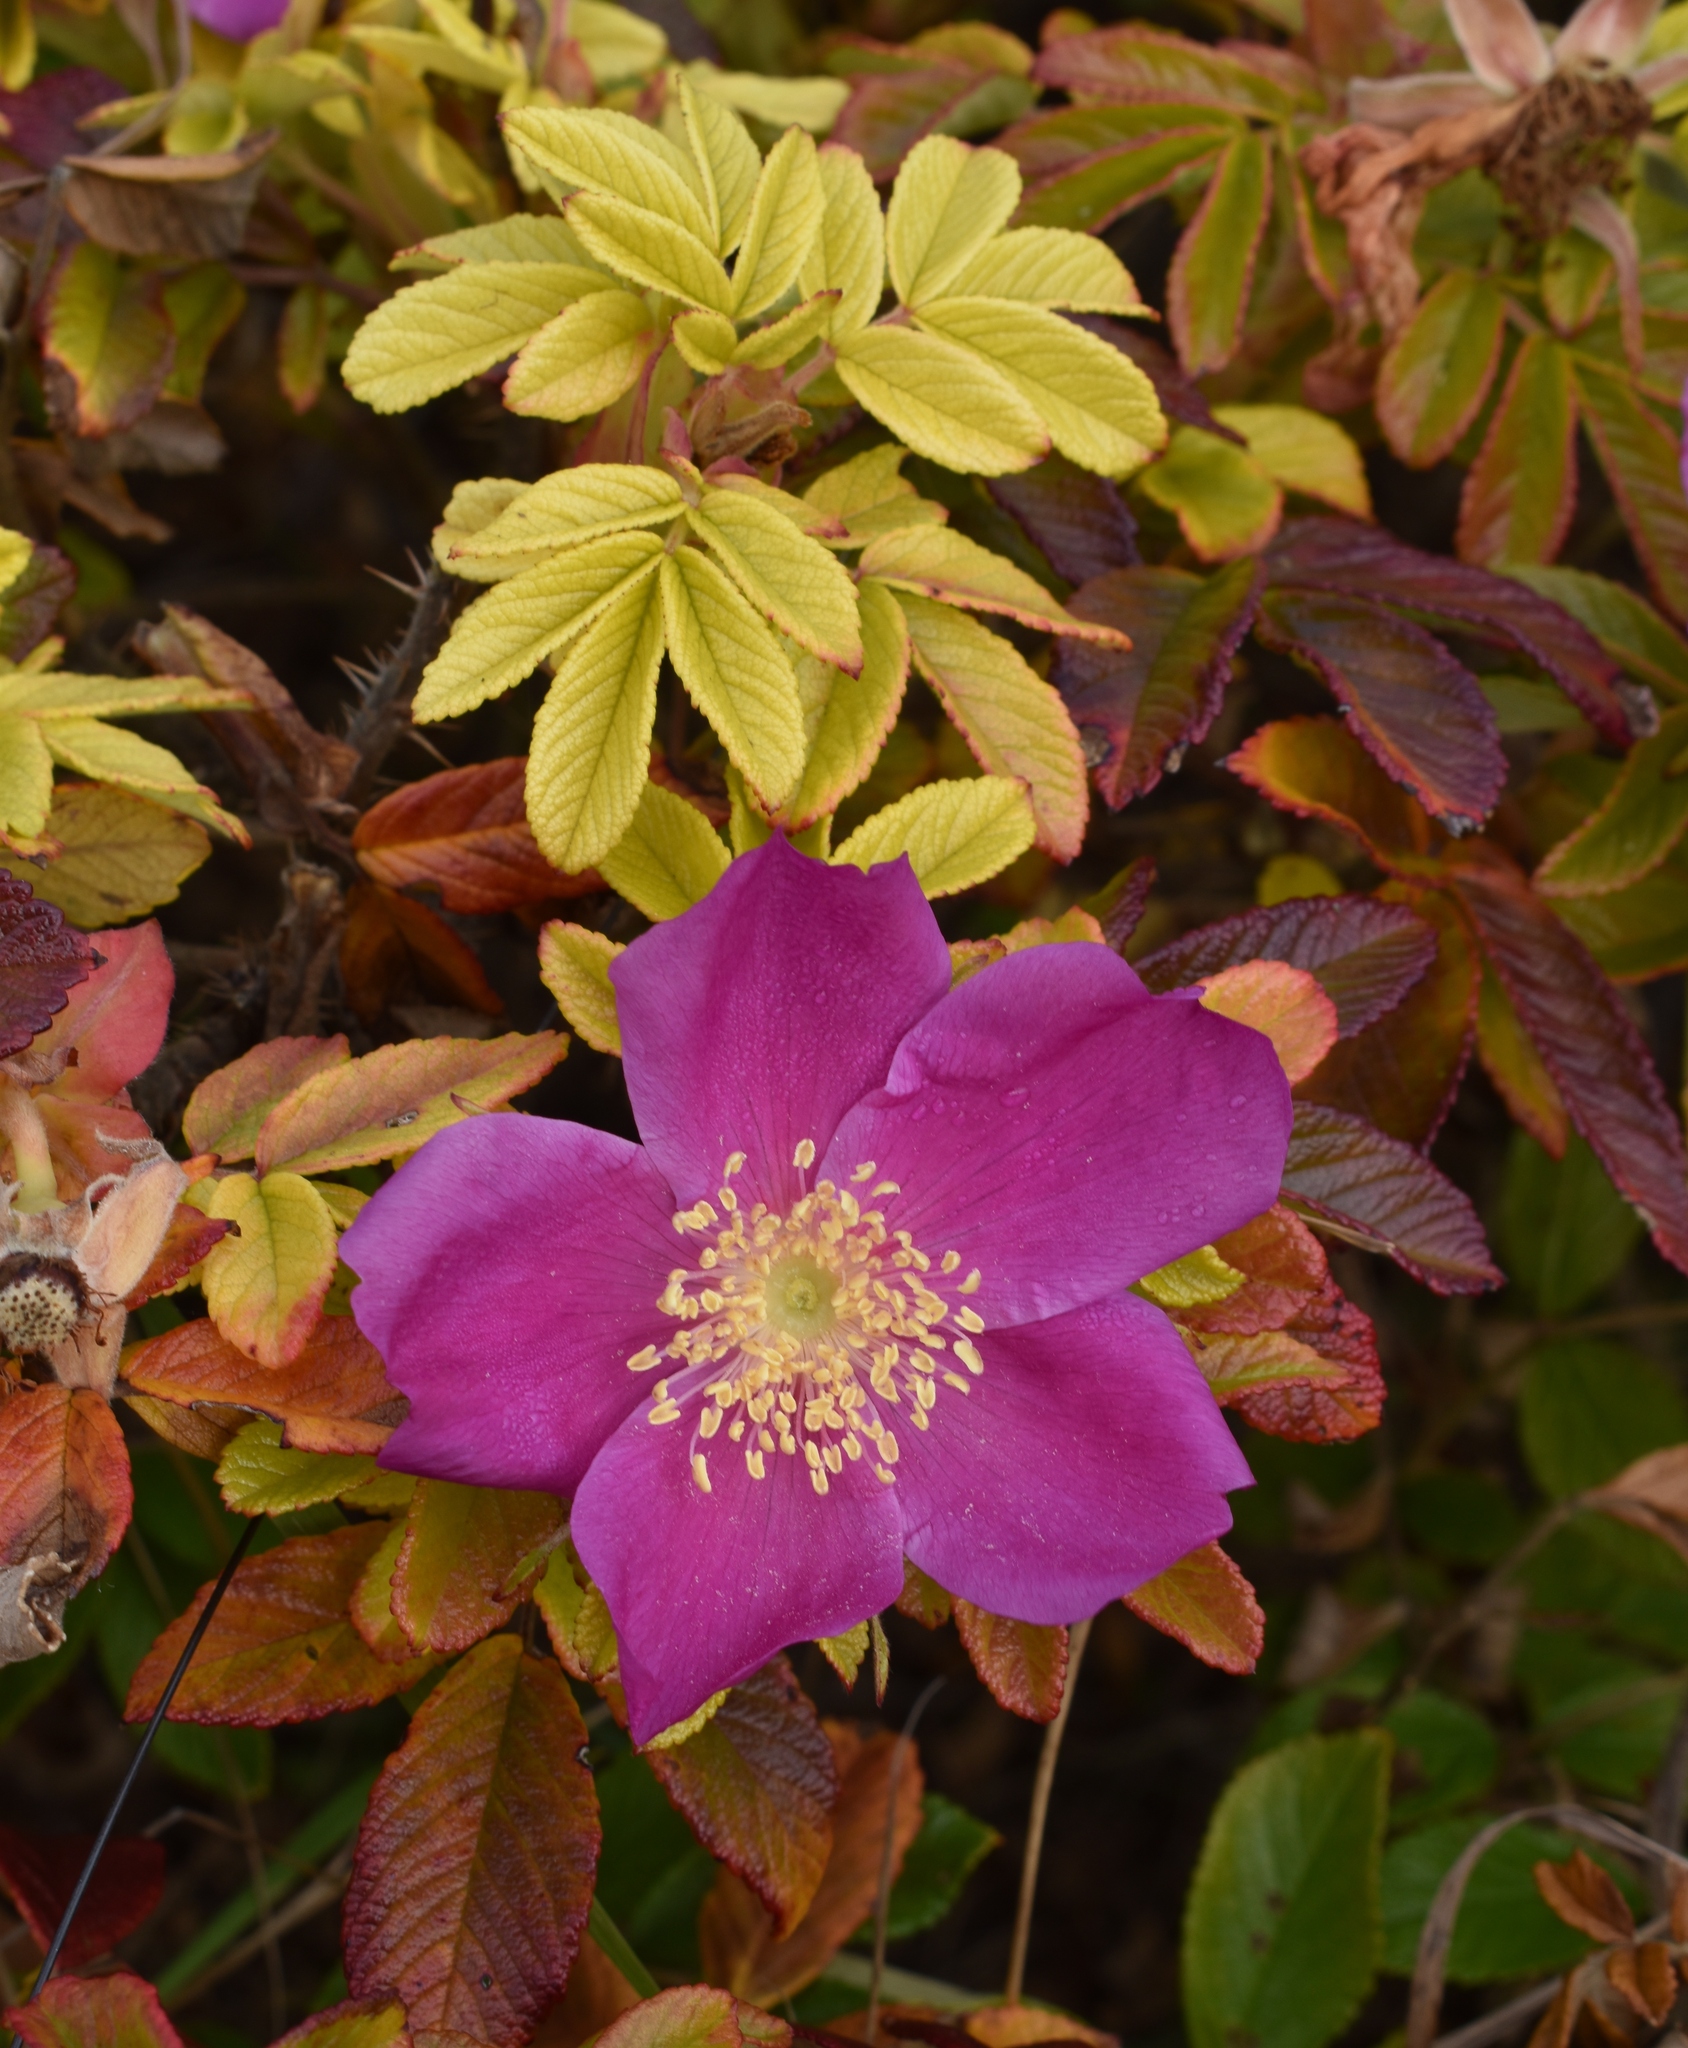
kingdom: Plantae
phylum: Tracheophyta
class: Magnoliopsida
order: Rosales
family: Rosaceae
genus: Rosa
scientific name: Rosa rugosa
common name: Japanese rose
